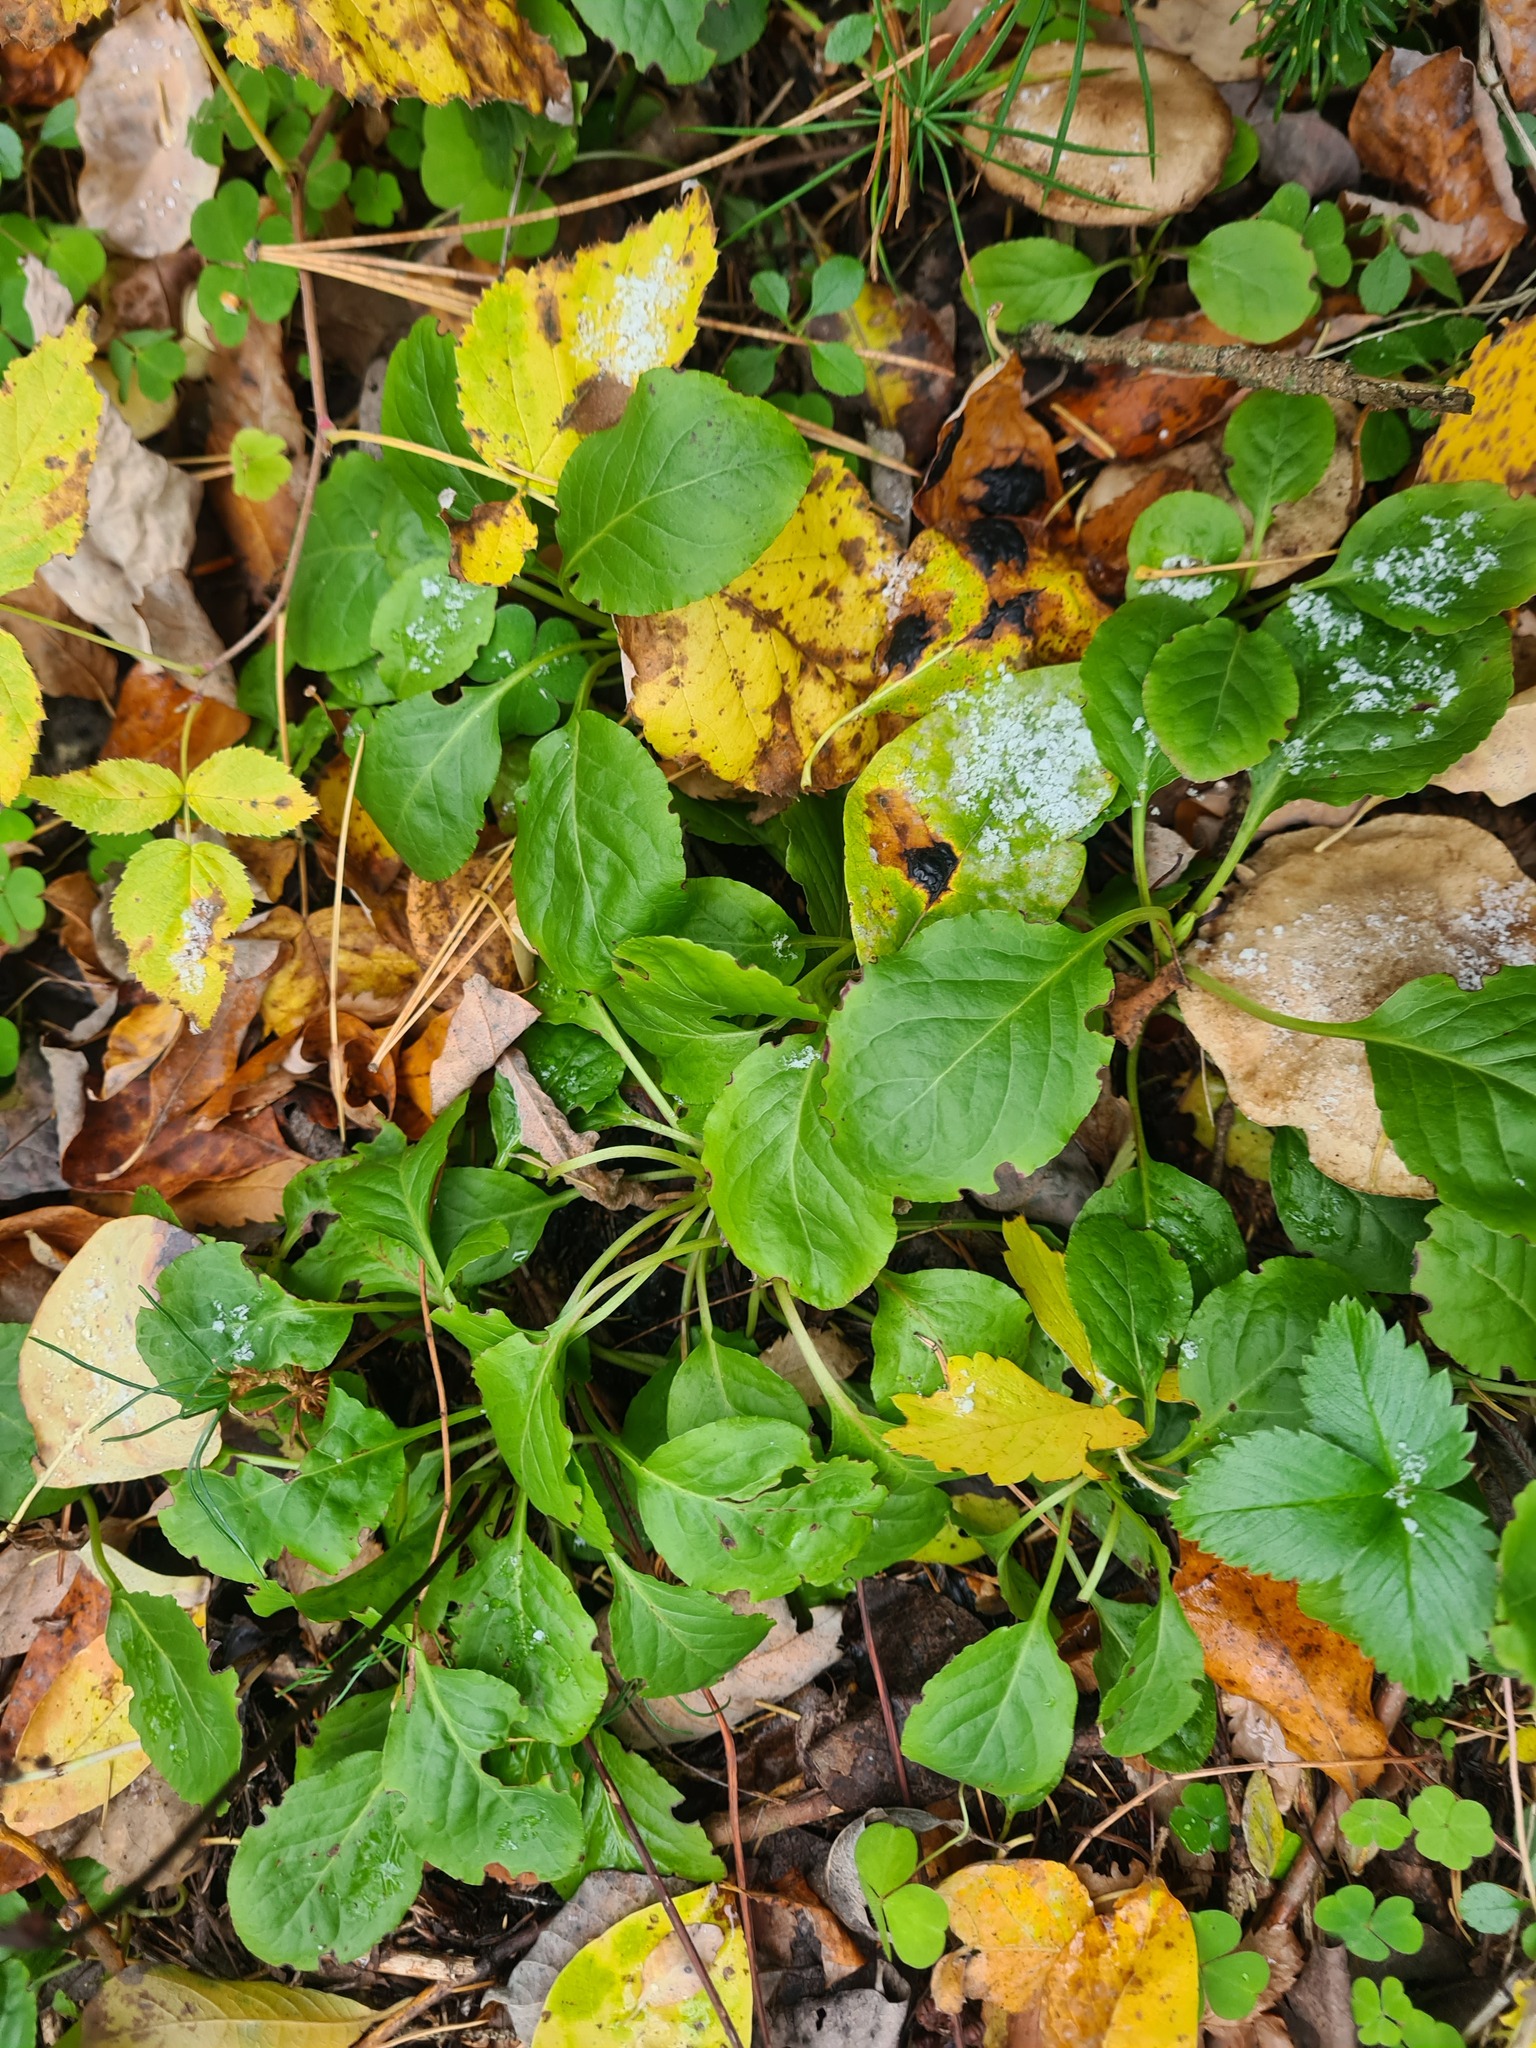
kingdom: Plantae
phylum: Tracheophyta
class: Magnoliopsida
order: Ericales
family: Ericaceae
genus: Pyrola
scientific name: Pyrola minor
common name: Common wintergreen
